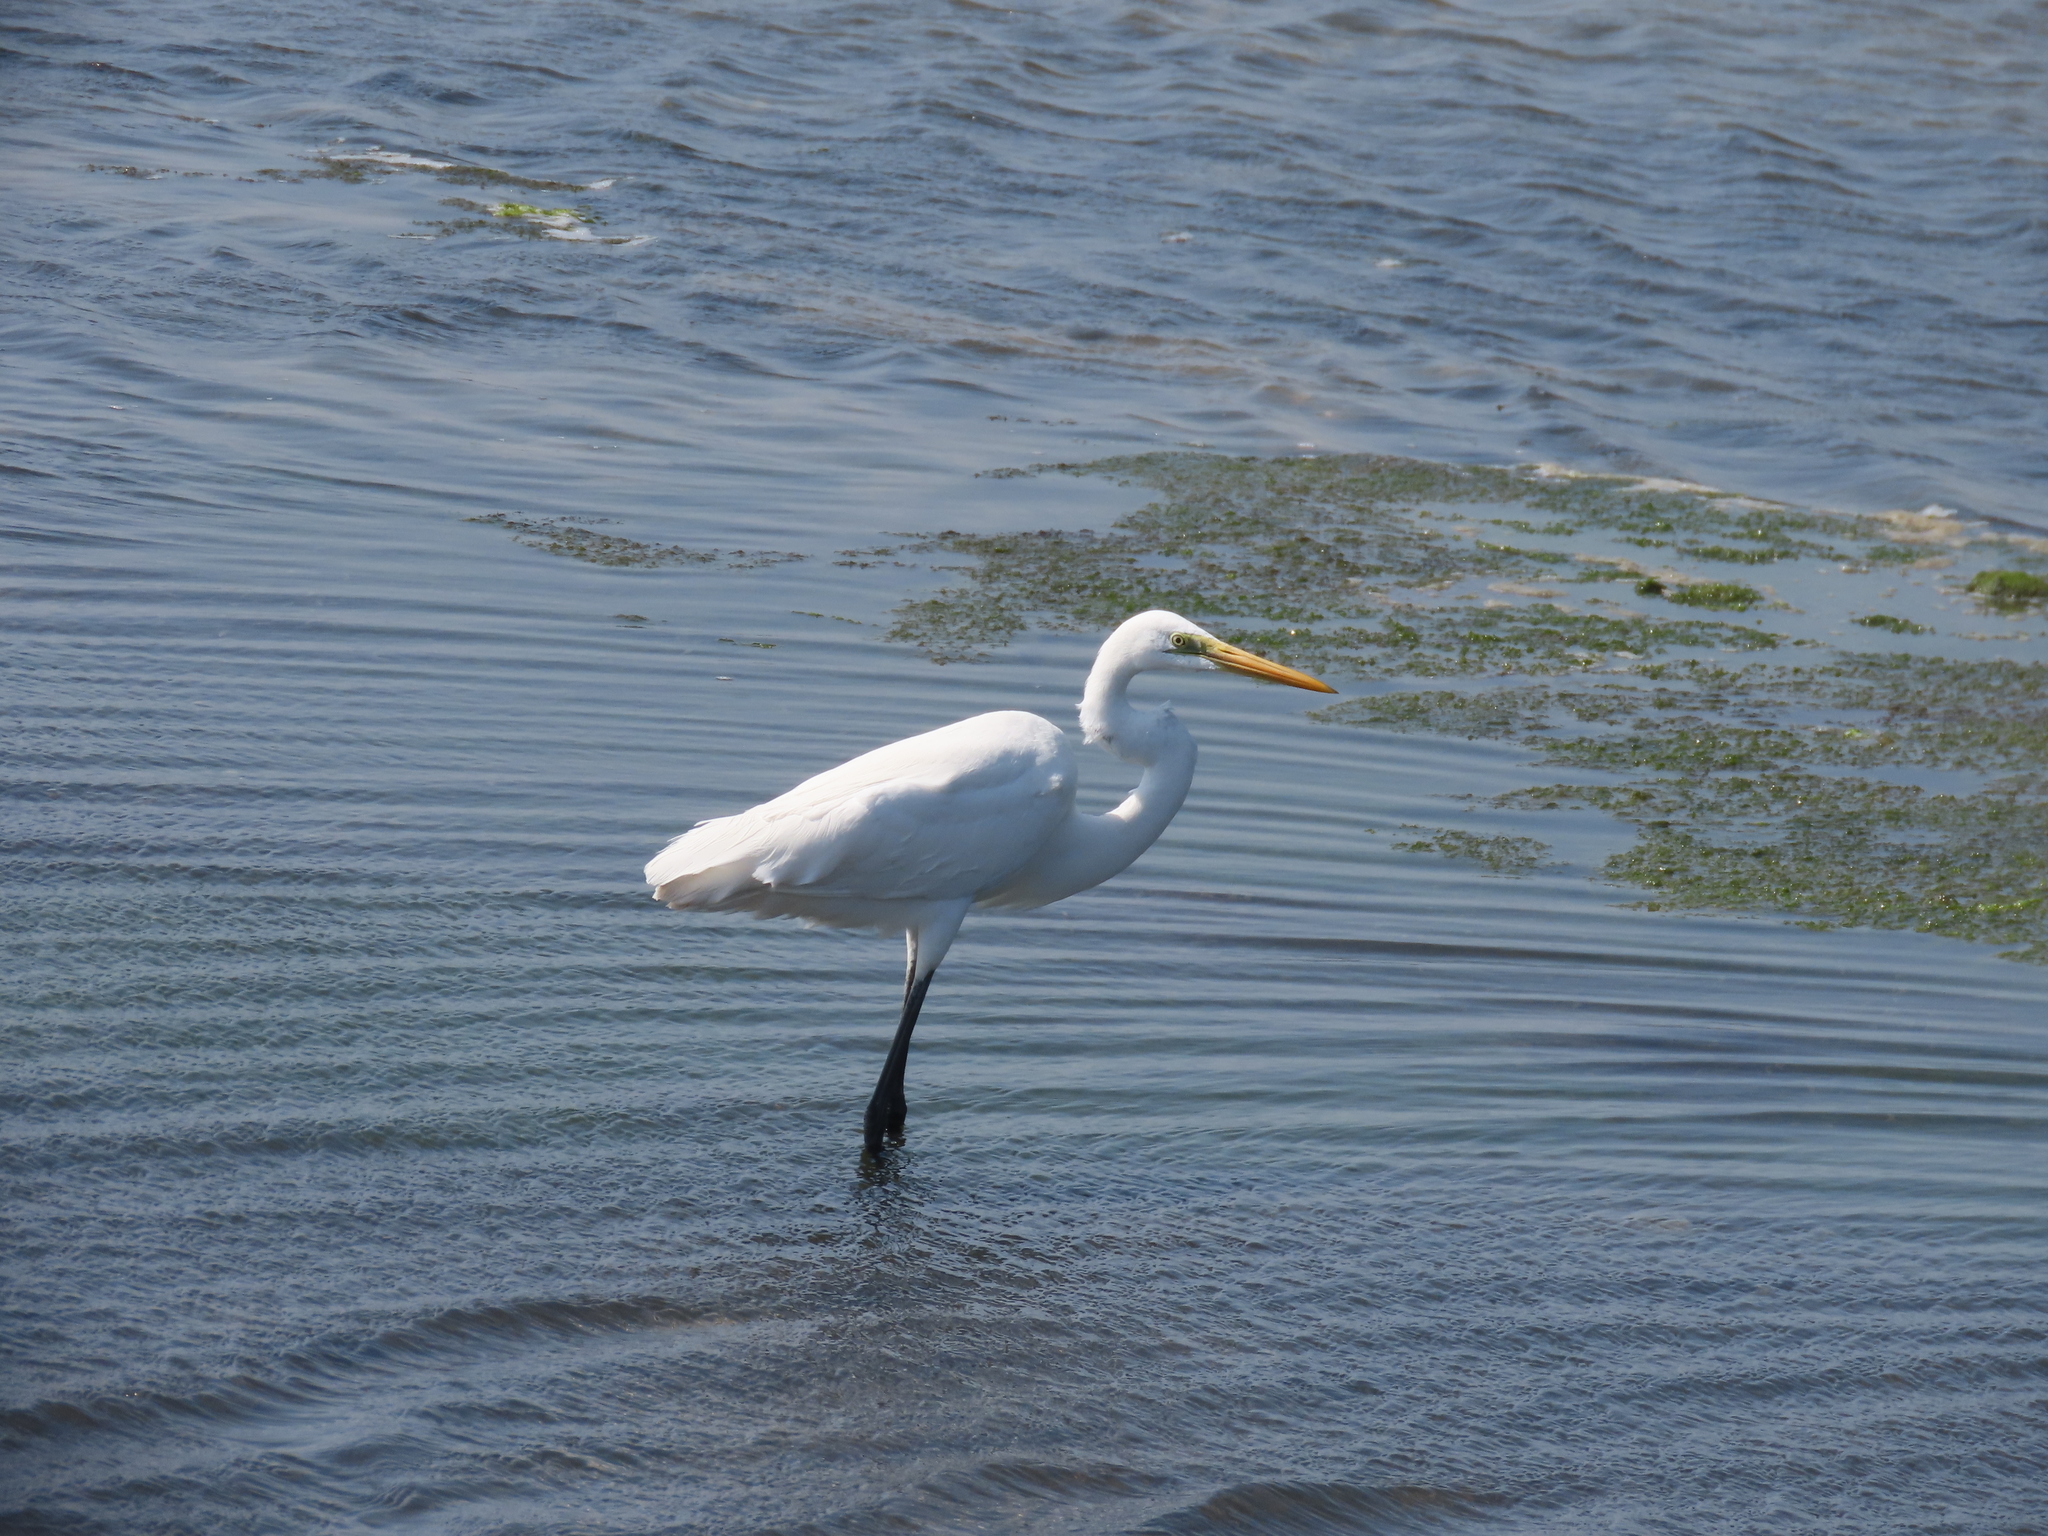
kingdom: Animalia
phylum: Chordata
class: Aves
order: Pelecaniformes
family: Ardeidae
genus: Ardea
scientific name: Ardea alba
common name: Great egret
